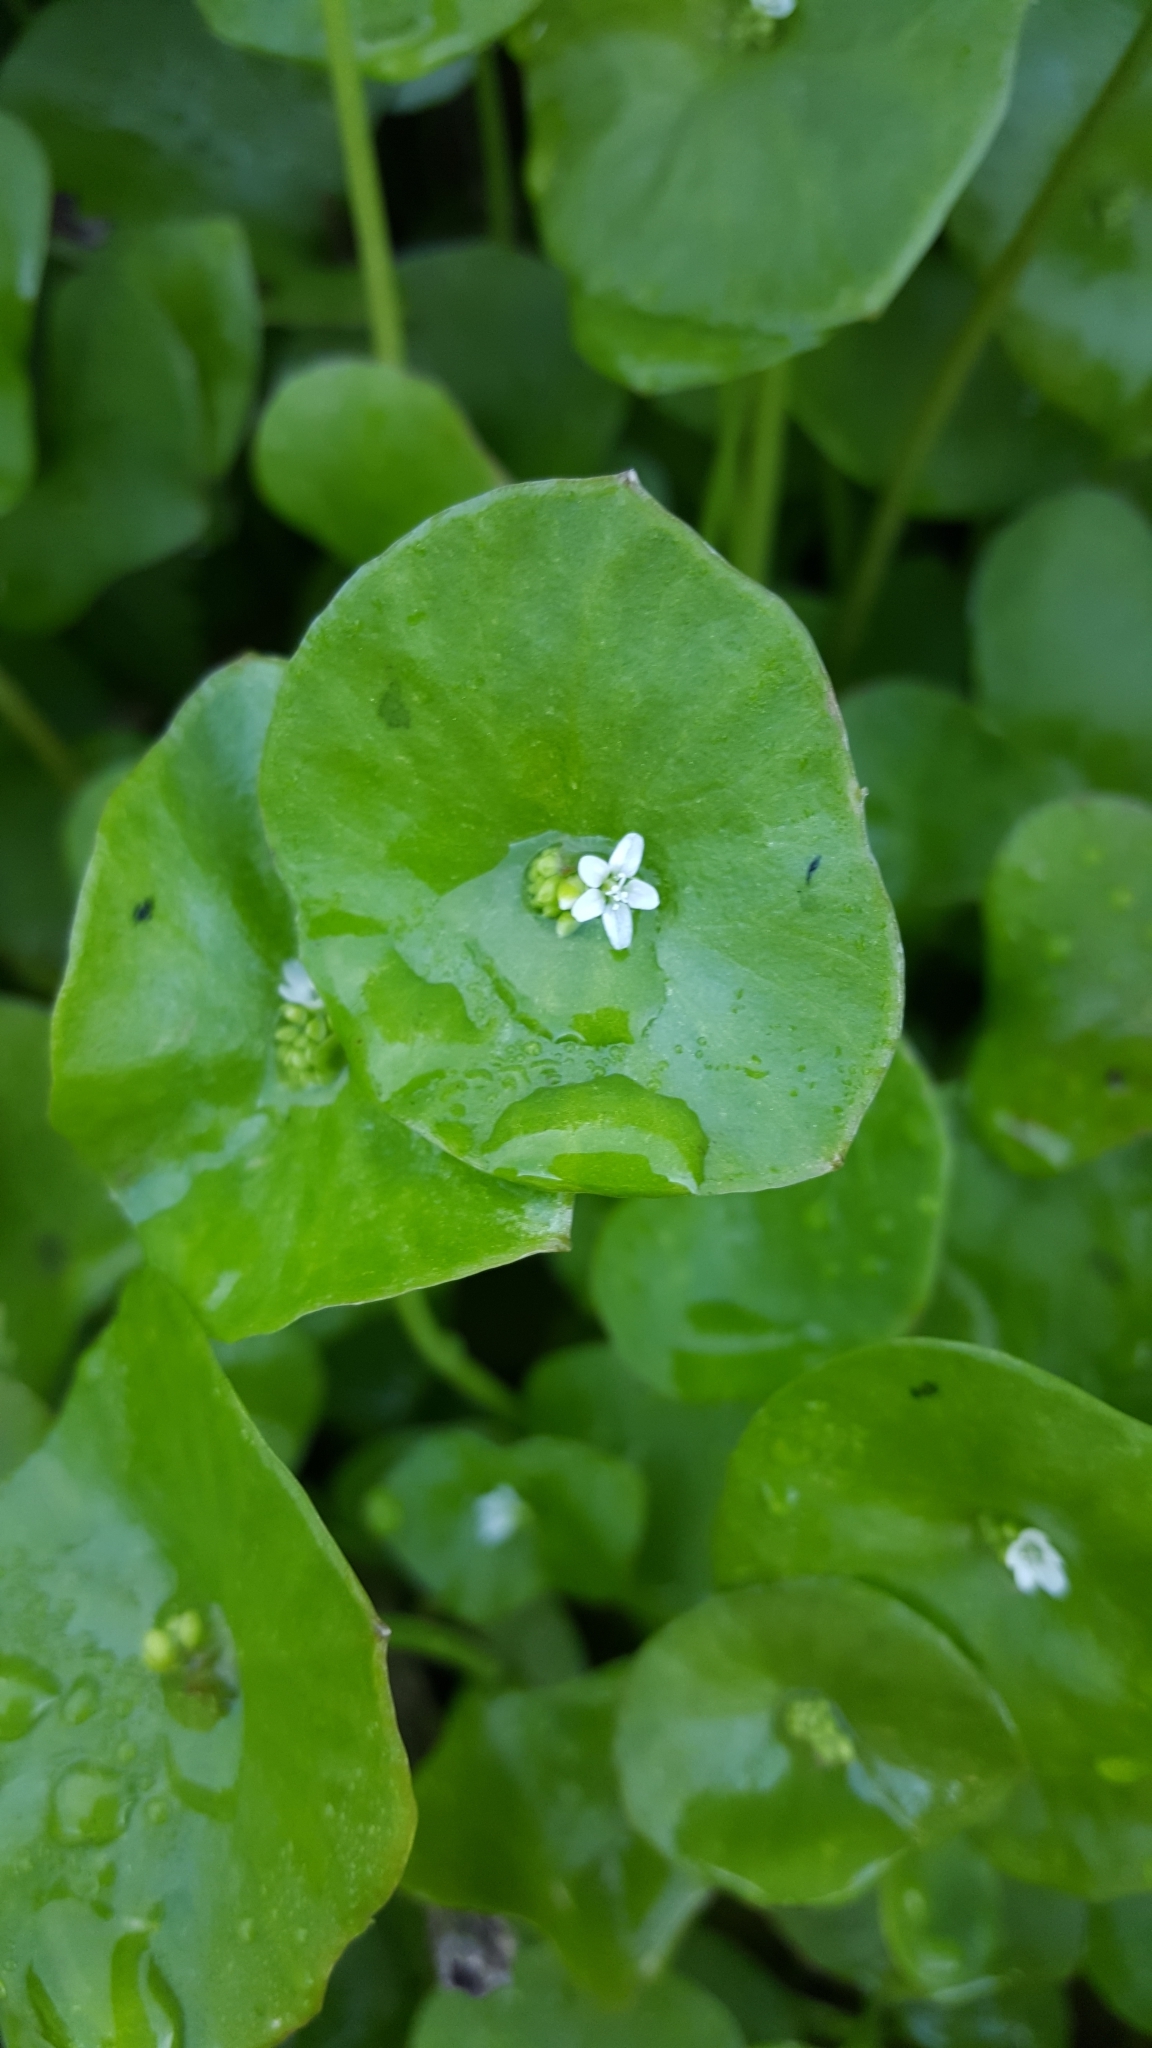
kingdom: Plantae
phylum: Tracheophyta
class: Magnoliopsida
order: Caryophyllales
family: Montiaceae
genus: Claytonia
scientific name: Claytonia perfoliata
